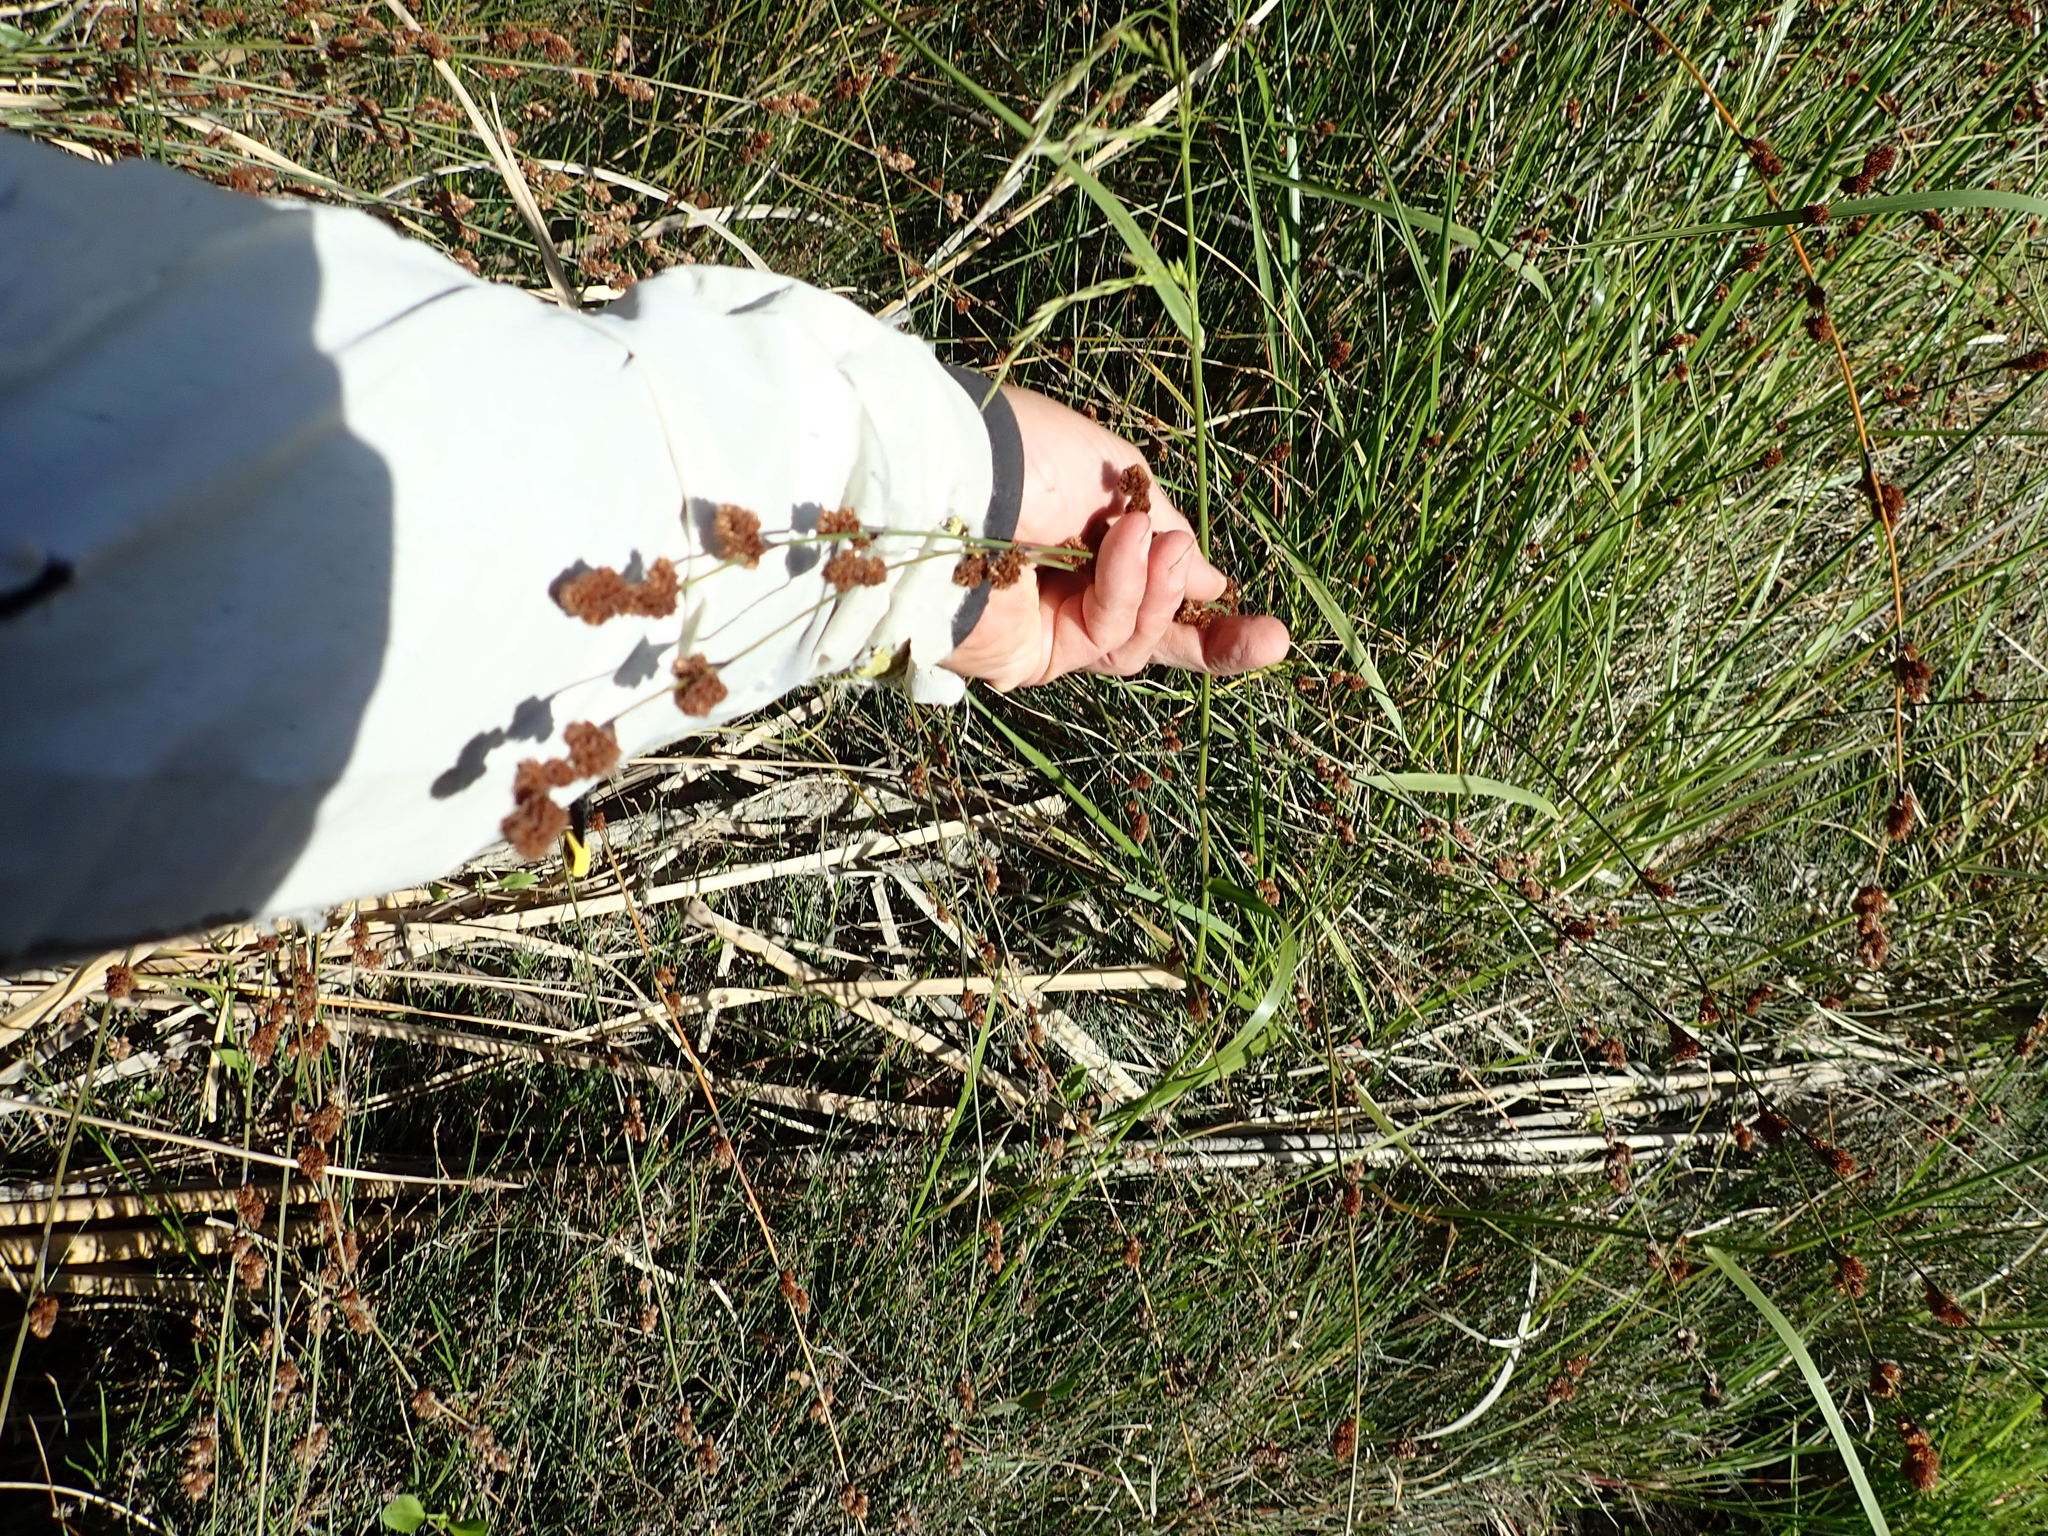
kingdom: Plantae
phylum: Tracheophyta
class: Liliopsida
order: Poales
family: Restionaceae
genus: Apodasmia
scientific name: Apodasmia similis
